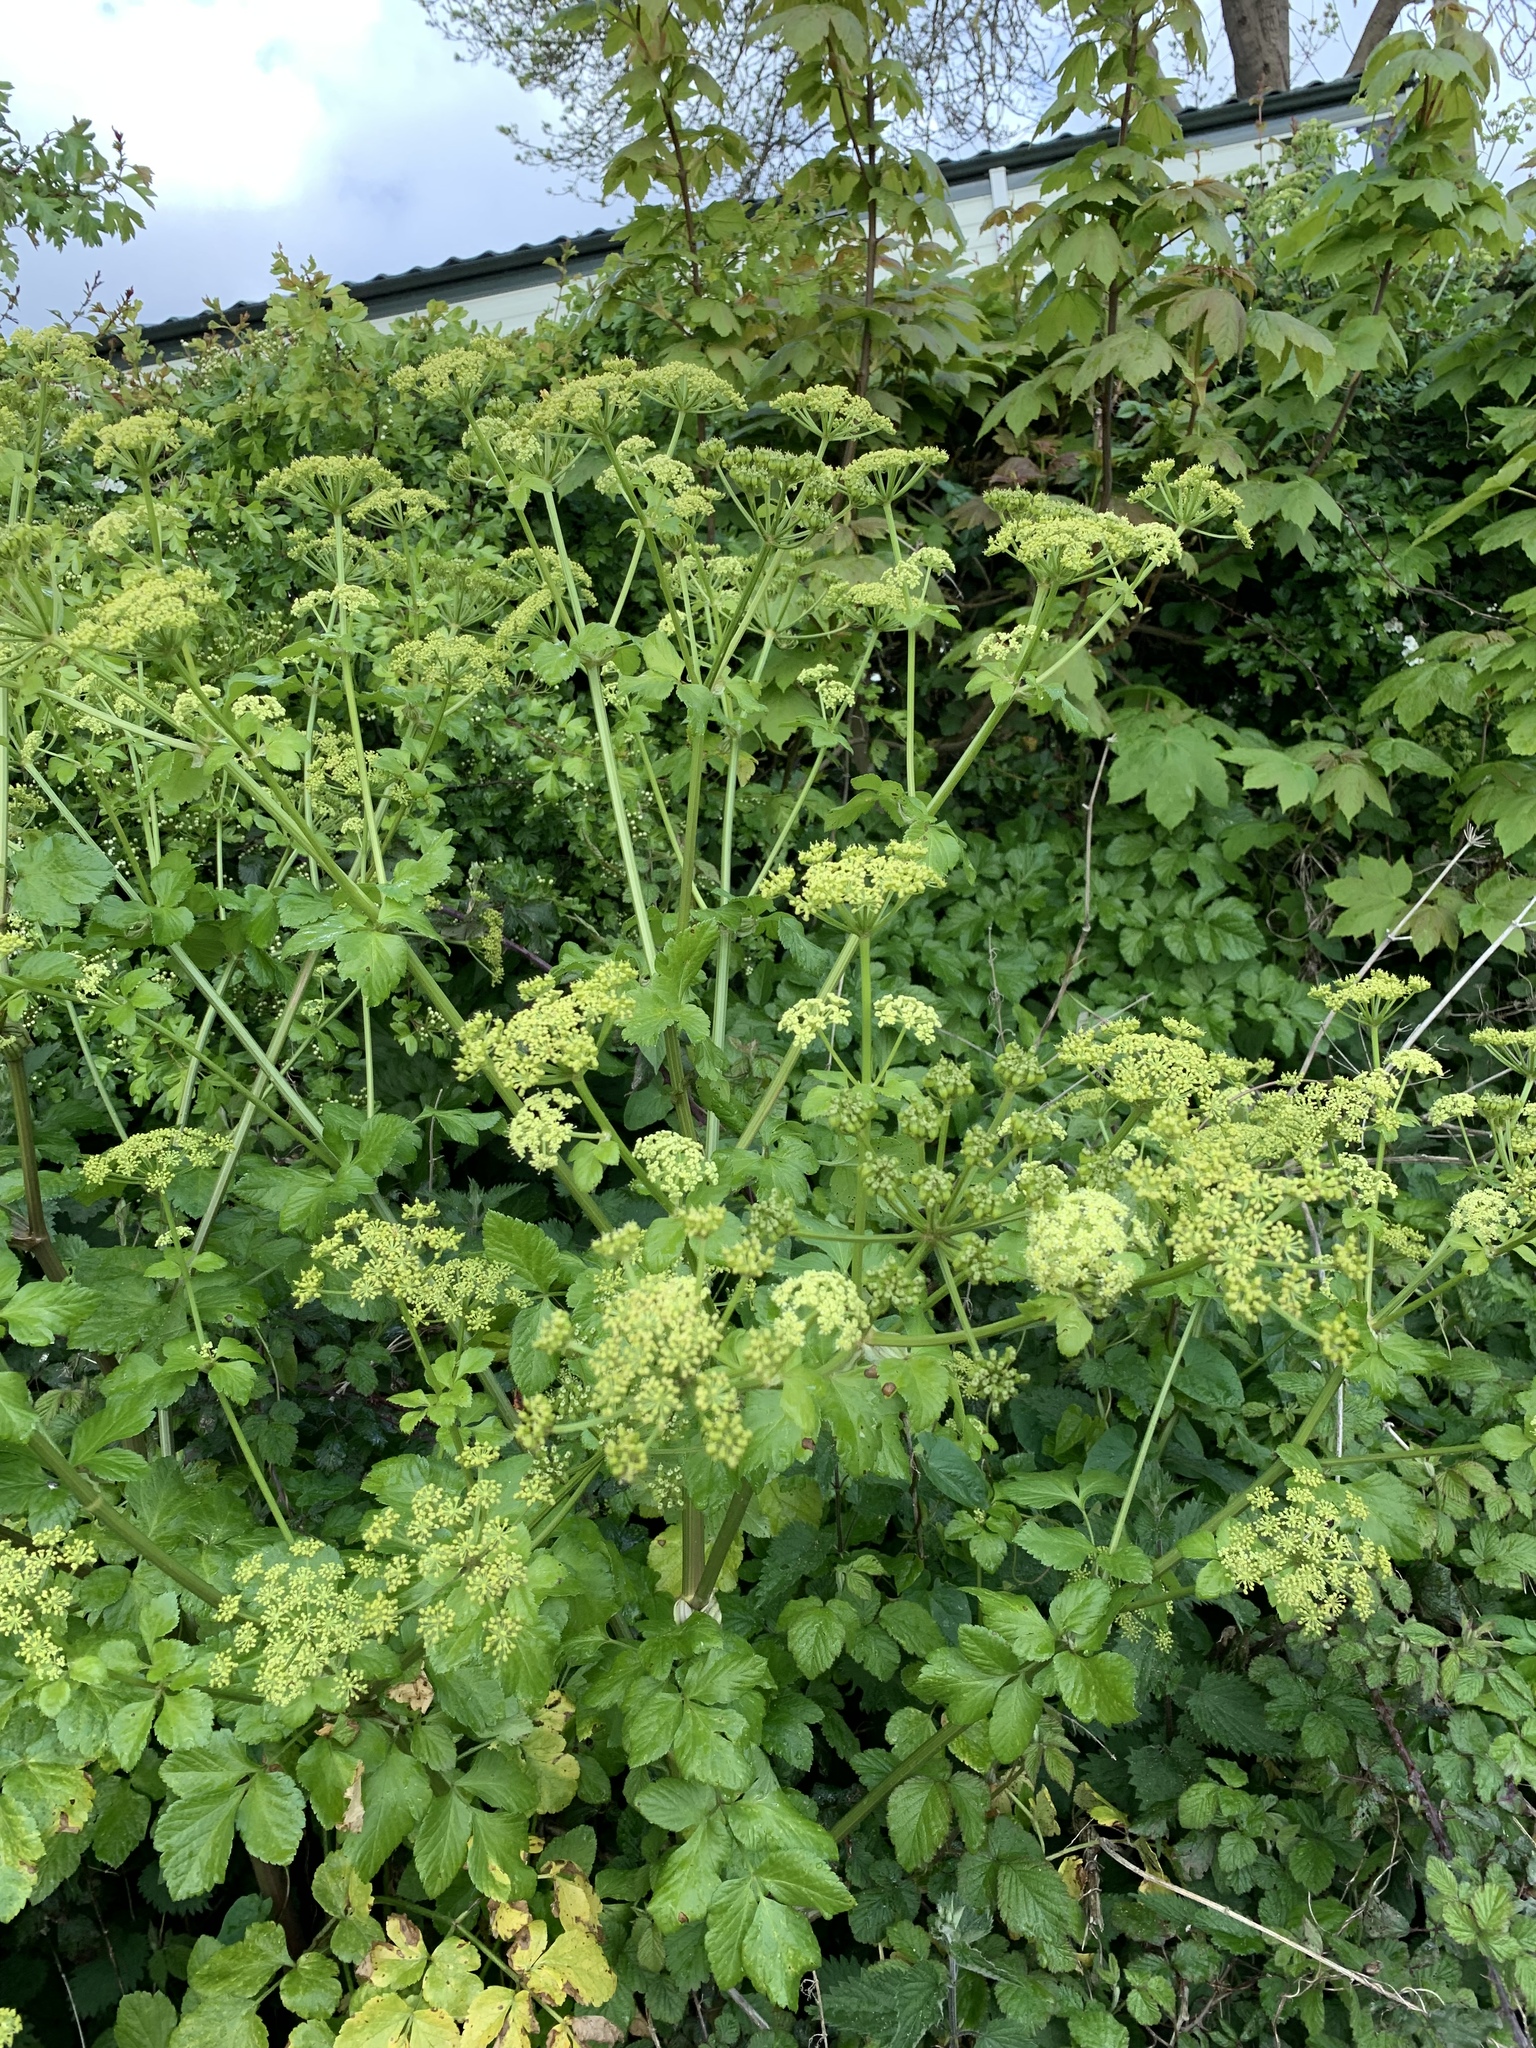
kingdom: Plantae
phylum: Tracheophyta
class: Magnoliopsida
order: Apiales
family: Apiaceae
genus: Smyrnium
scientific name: Smyrnium olusatrum
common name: Alexanders
